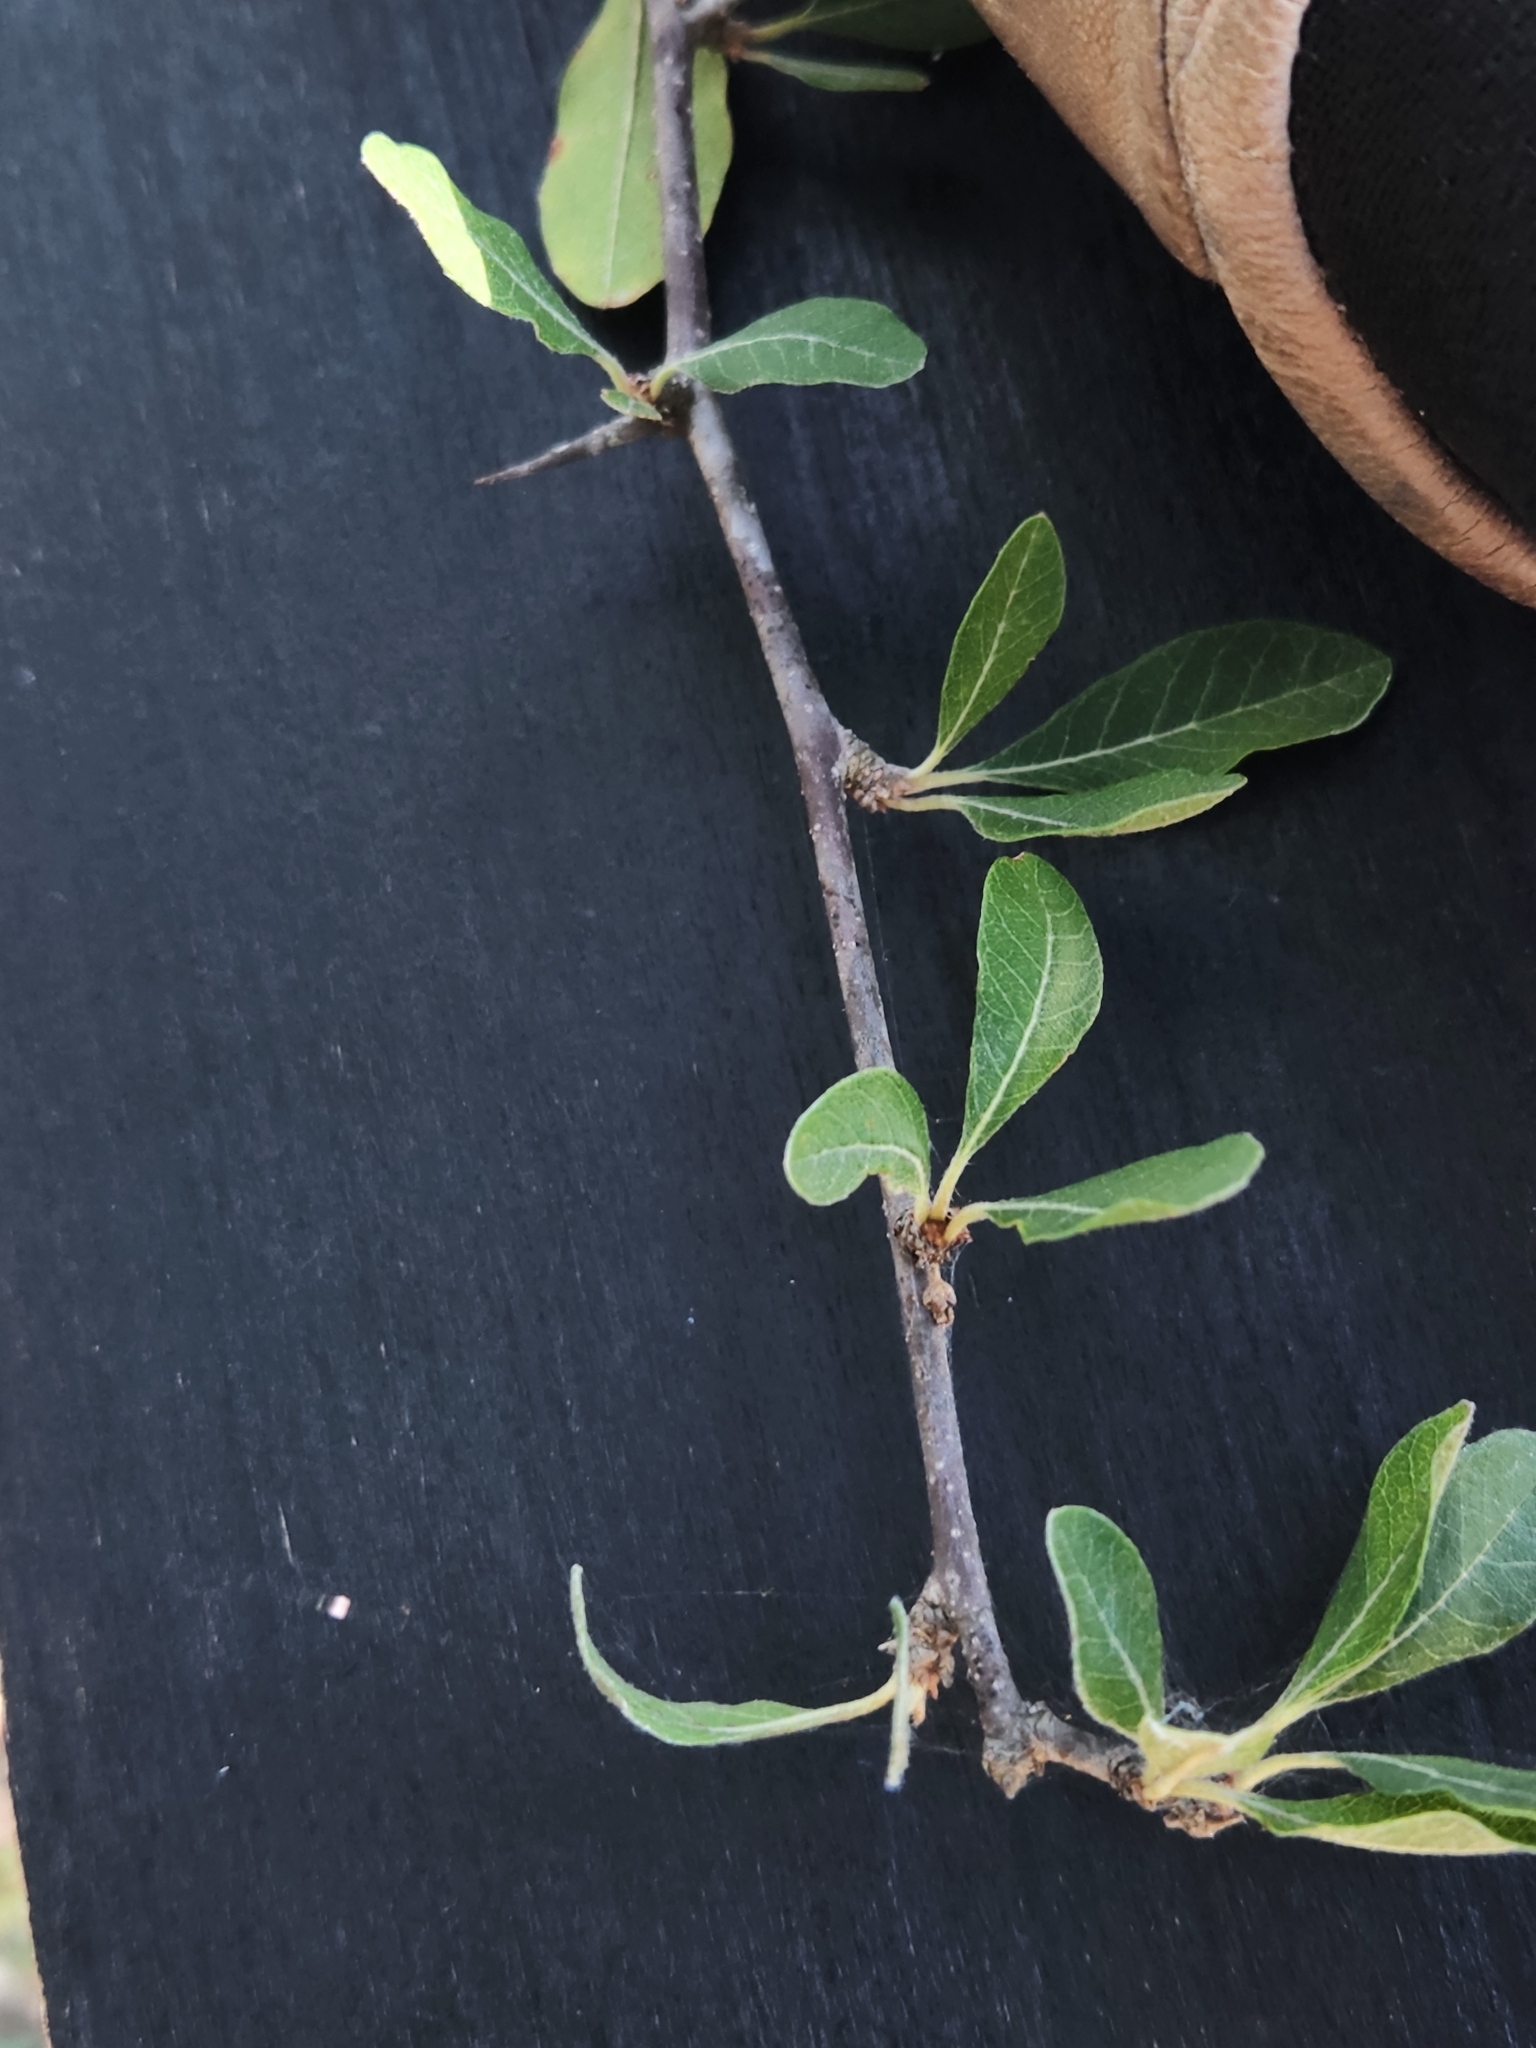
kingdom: Plantae
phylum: Tracheophyta
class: Magnoliopsida
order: Ericales
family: Sapotaceae
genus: Sideroxylon
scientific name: Sideroxylon lanuginosum
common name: Chittamwood
